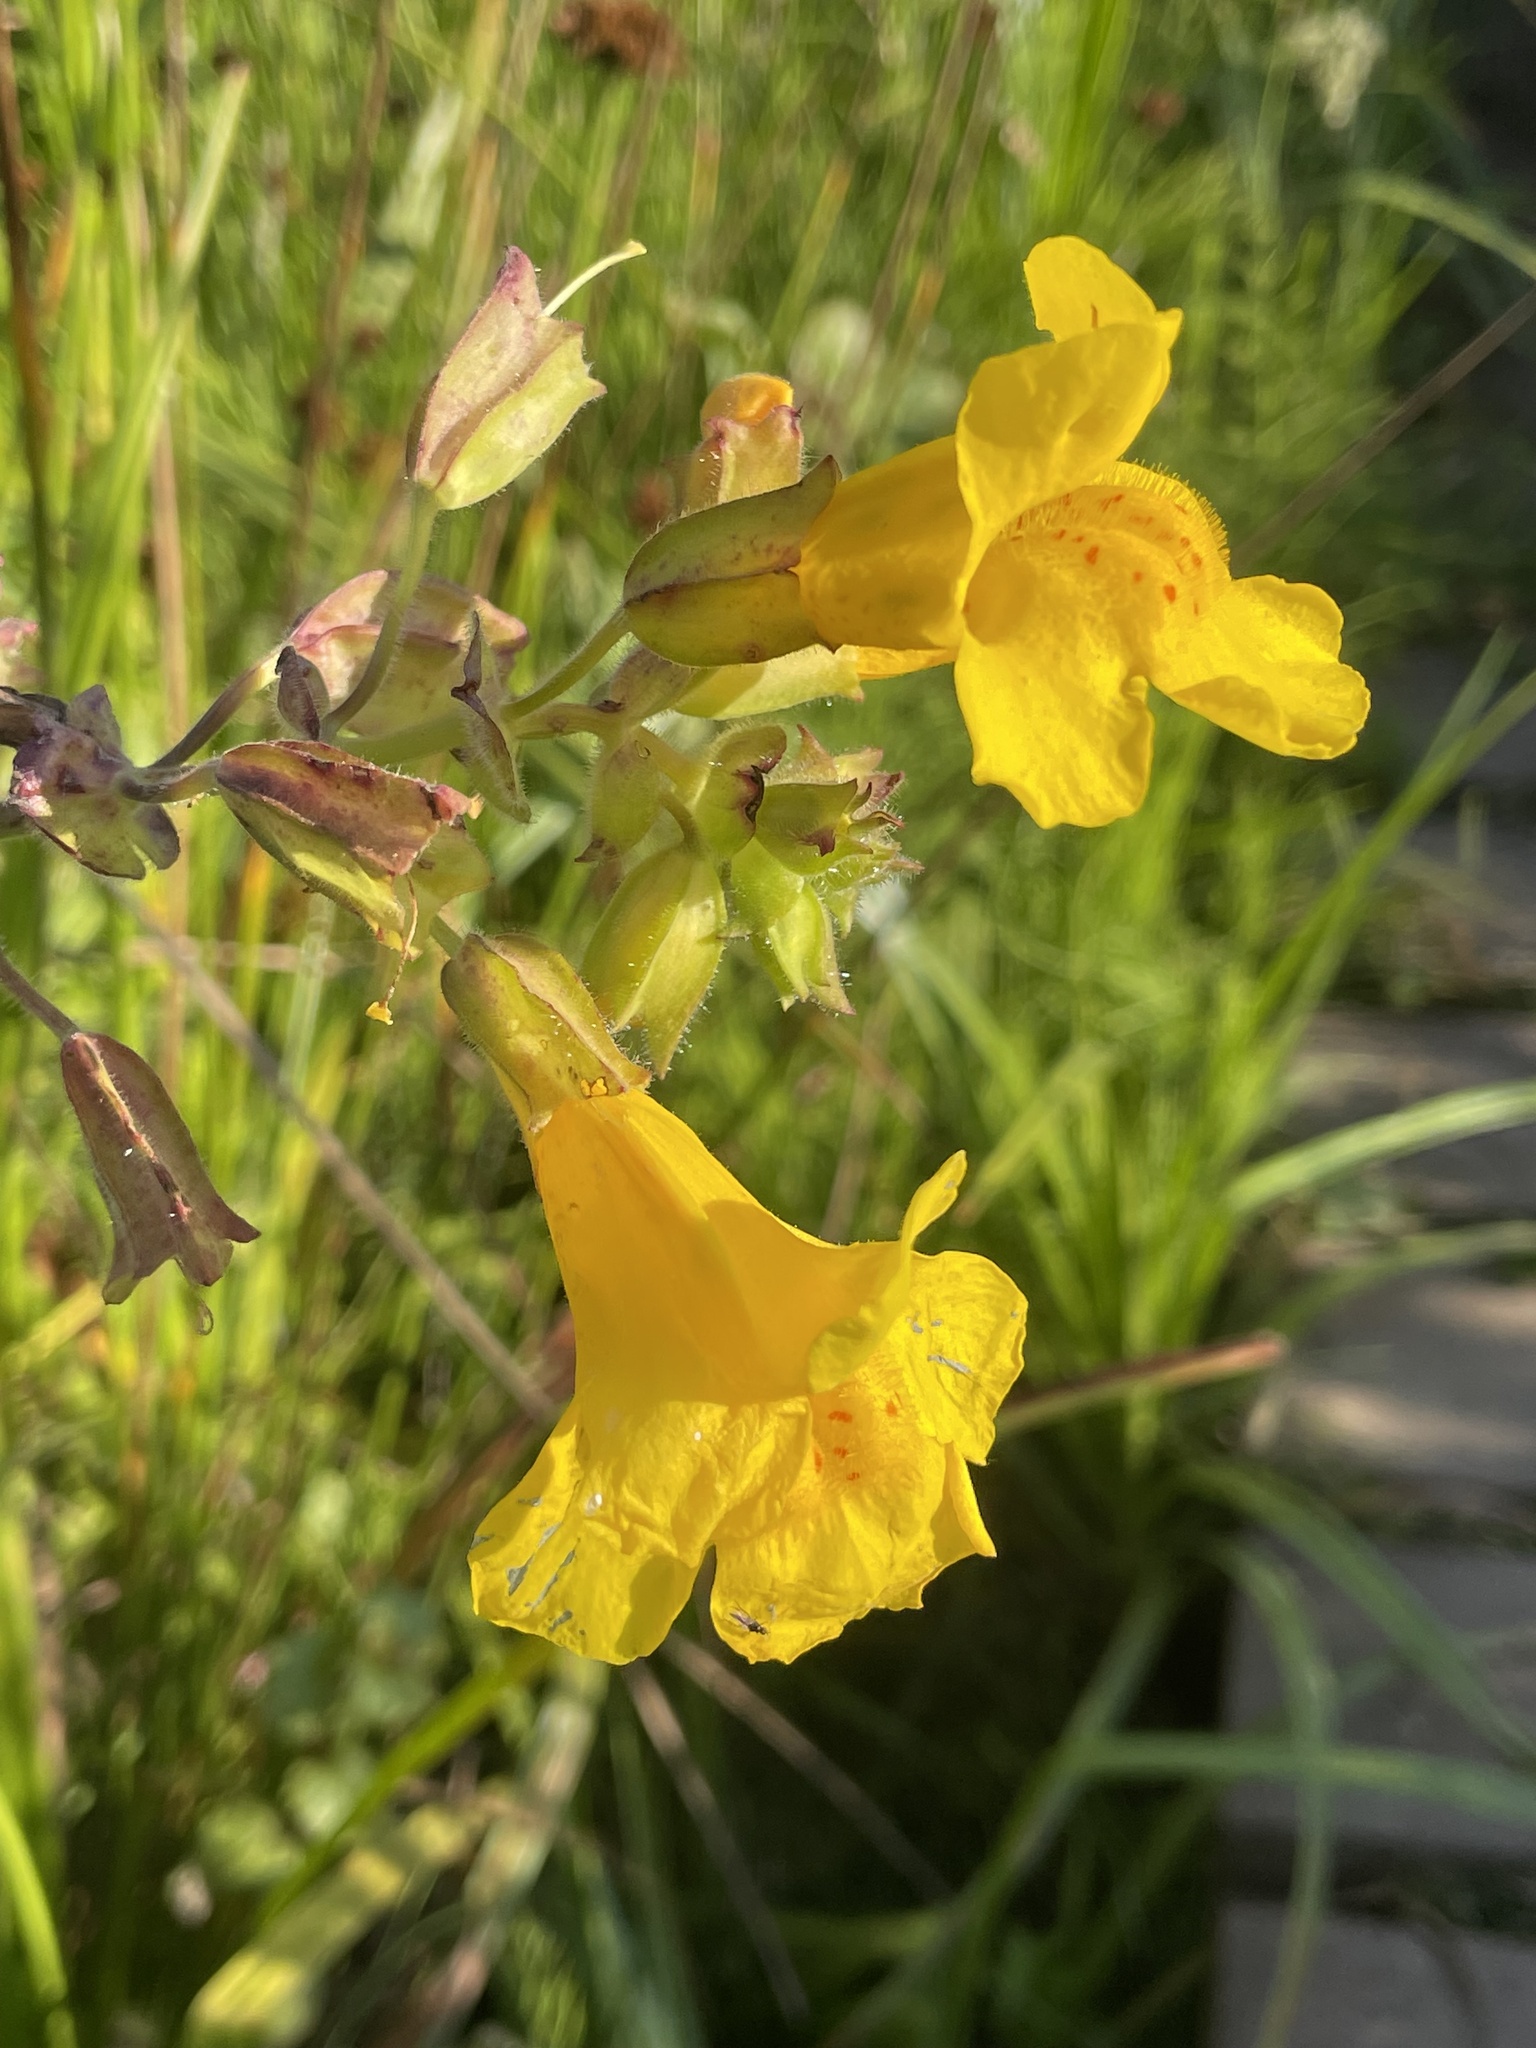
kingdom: Plantae
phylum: Tracheophyta
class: Magnoliopsida
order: Lamiales
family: Phrymaceae
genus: Erythranthe
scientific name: Erythranthe guttata
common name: Monkeyflower
